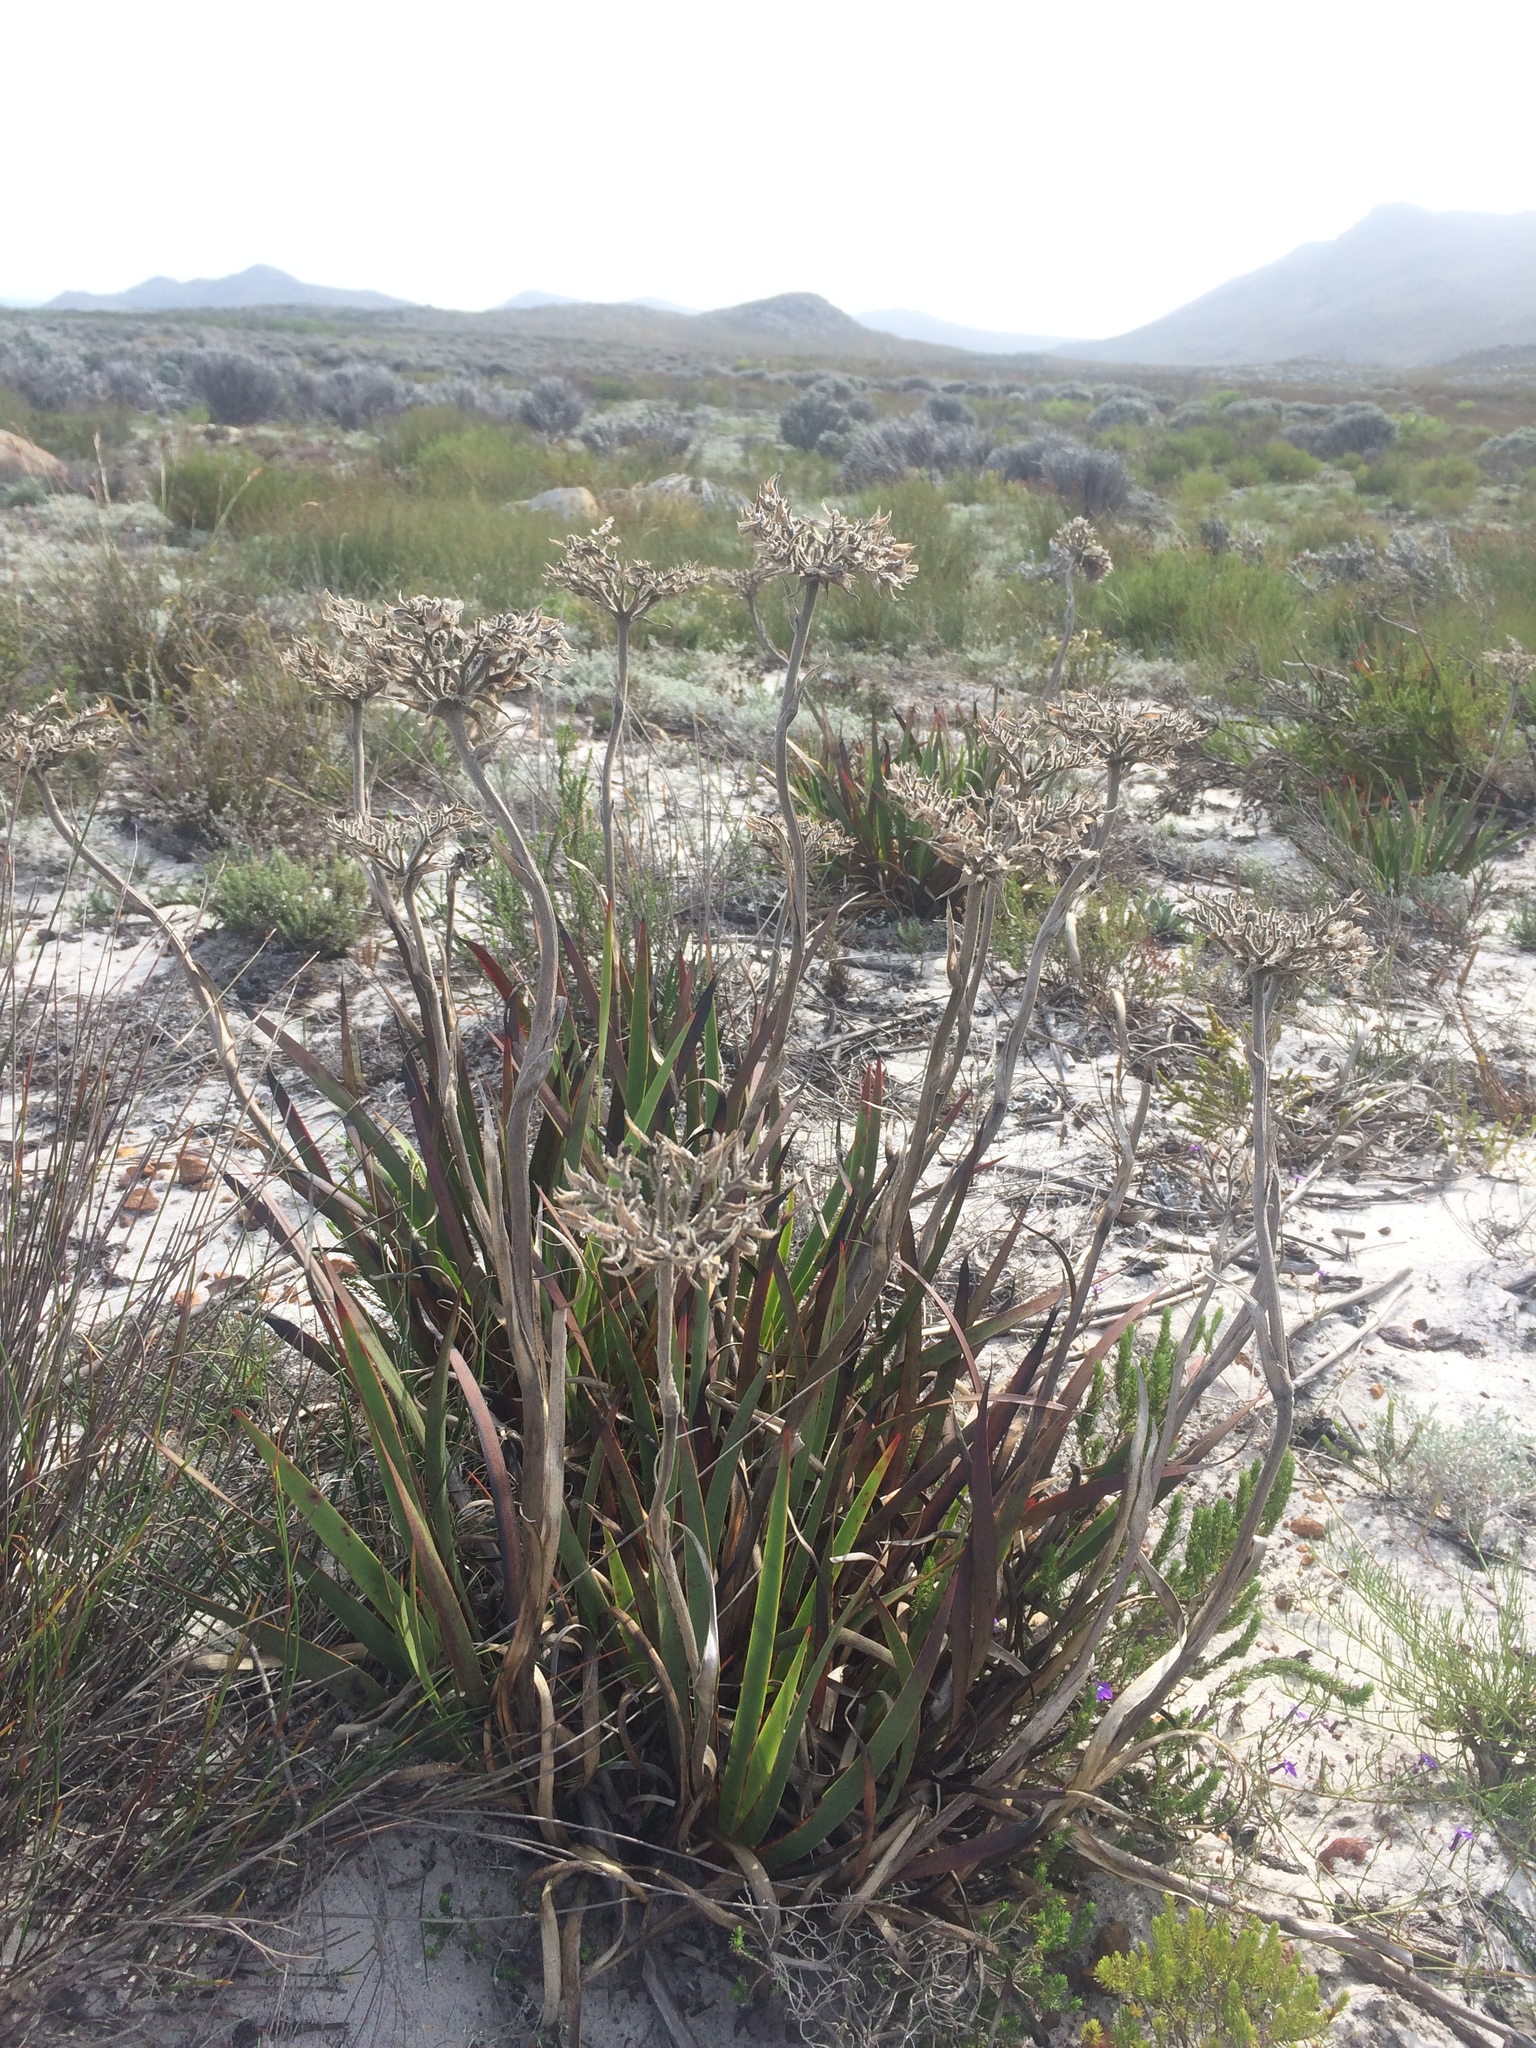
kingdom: Plantae
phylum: Tracheophyta
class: Liliopsida
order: Commelinales
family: Haemodoraceae
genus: Dilatris
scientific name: Dilatris corymbosa
